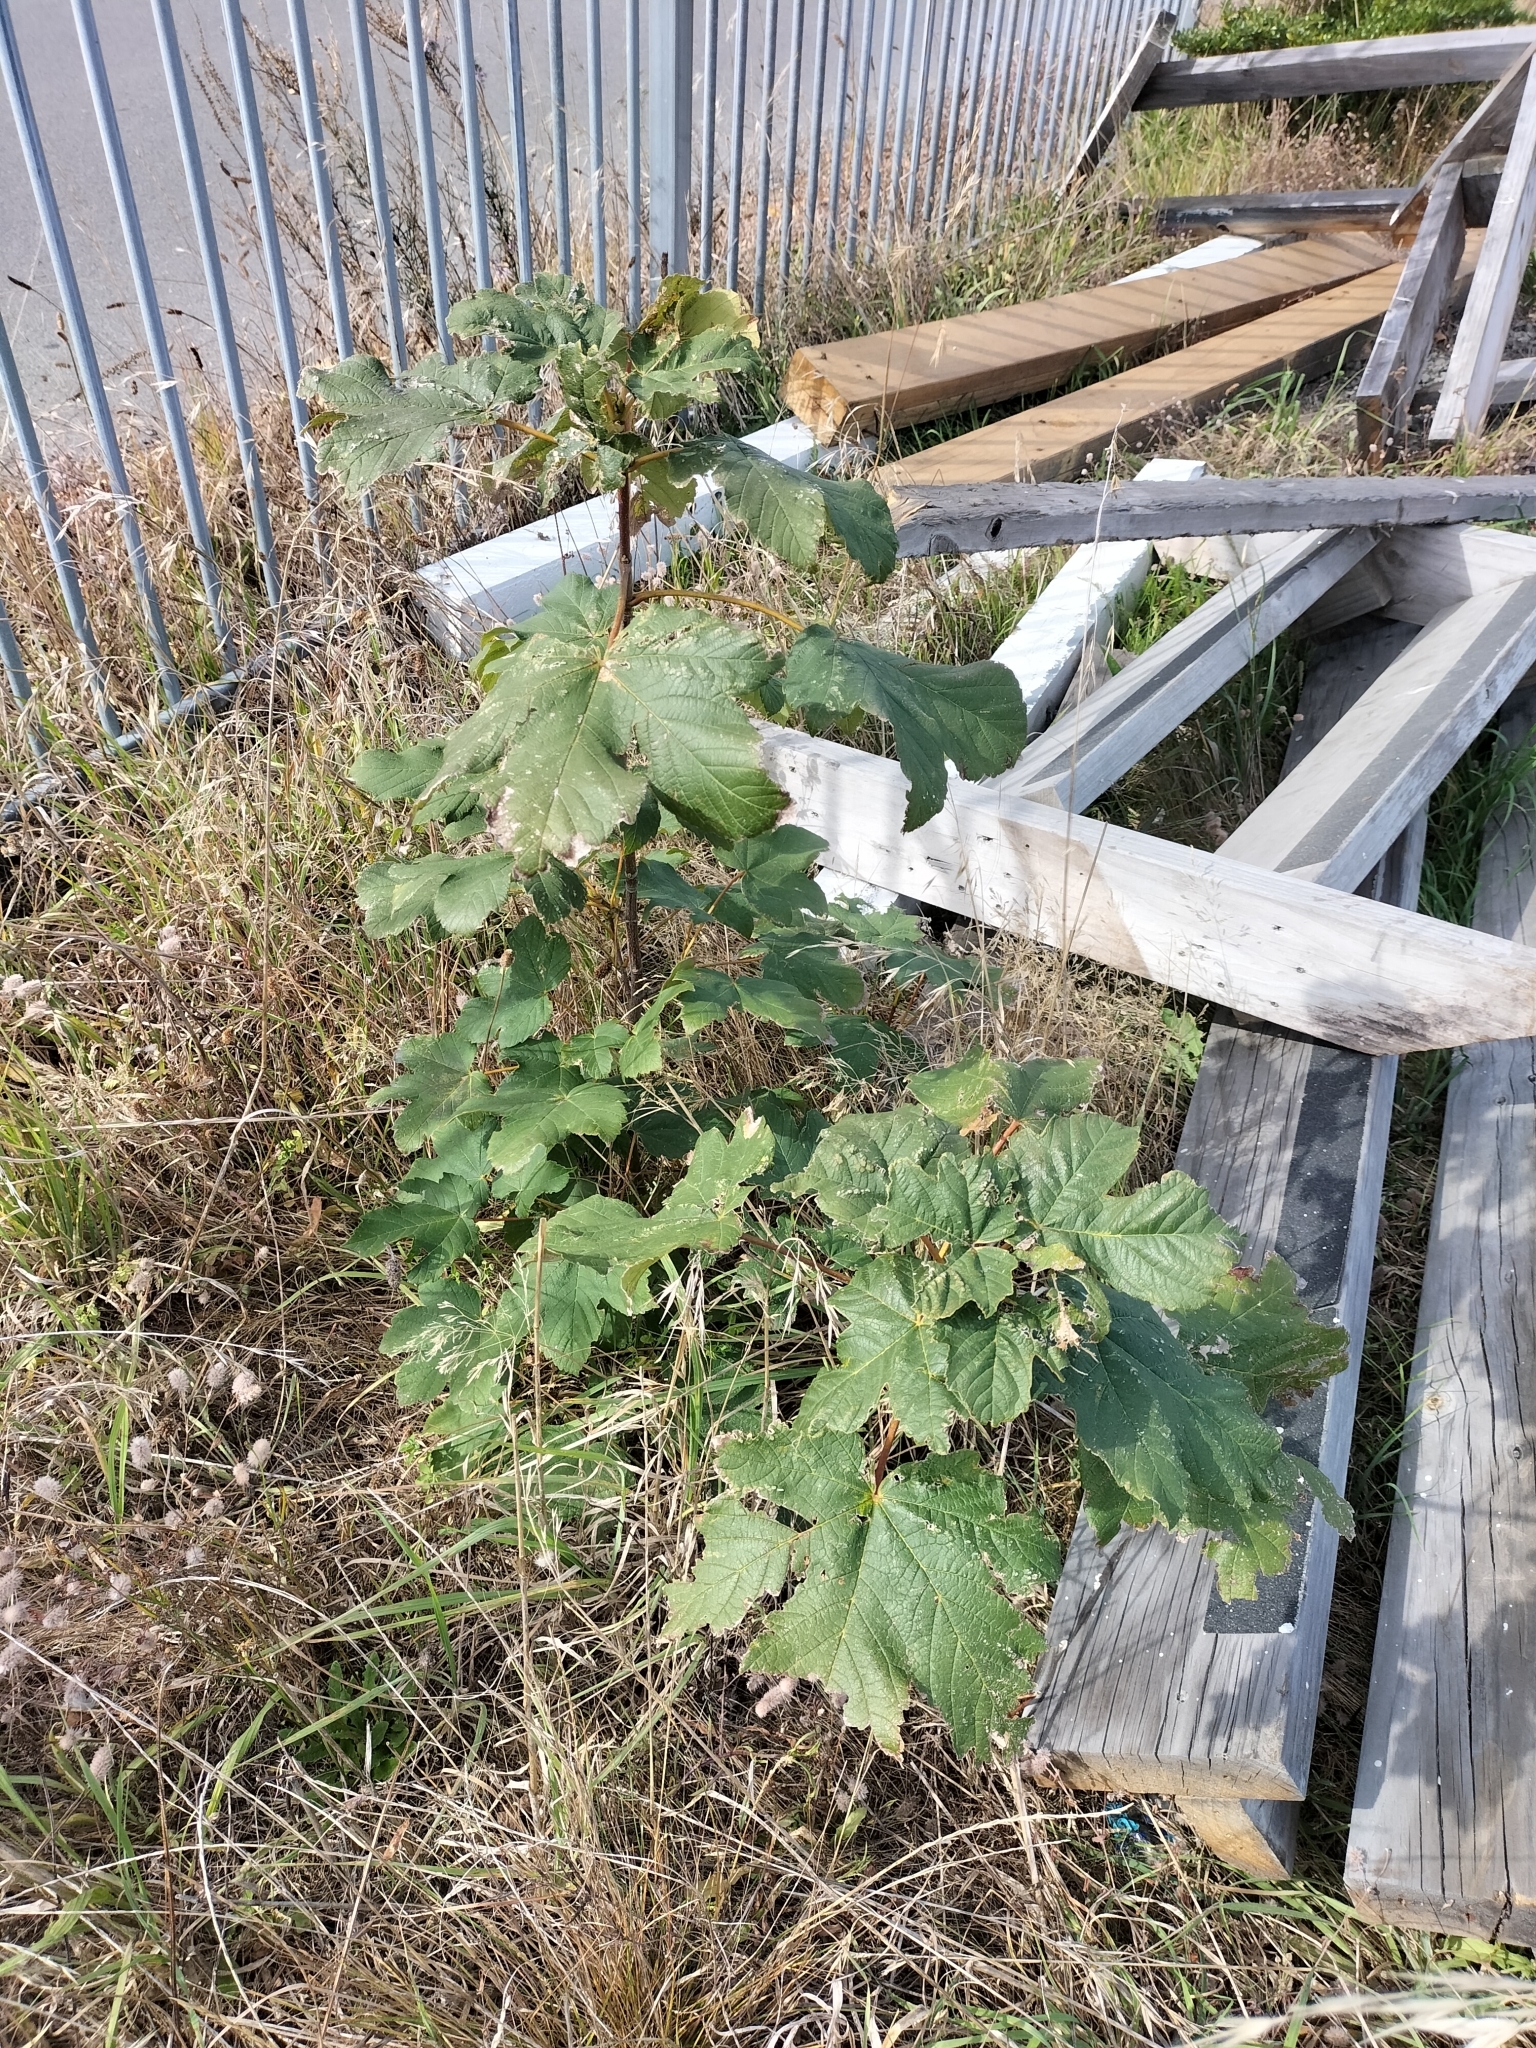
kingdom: Plantae
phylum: Tracheophyta
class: Magnoliopsida
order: Sapindales
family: Sapindaceae
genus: Acer
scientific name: Acer pseudoplatanus
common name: Sycamore
